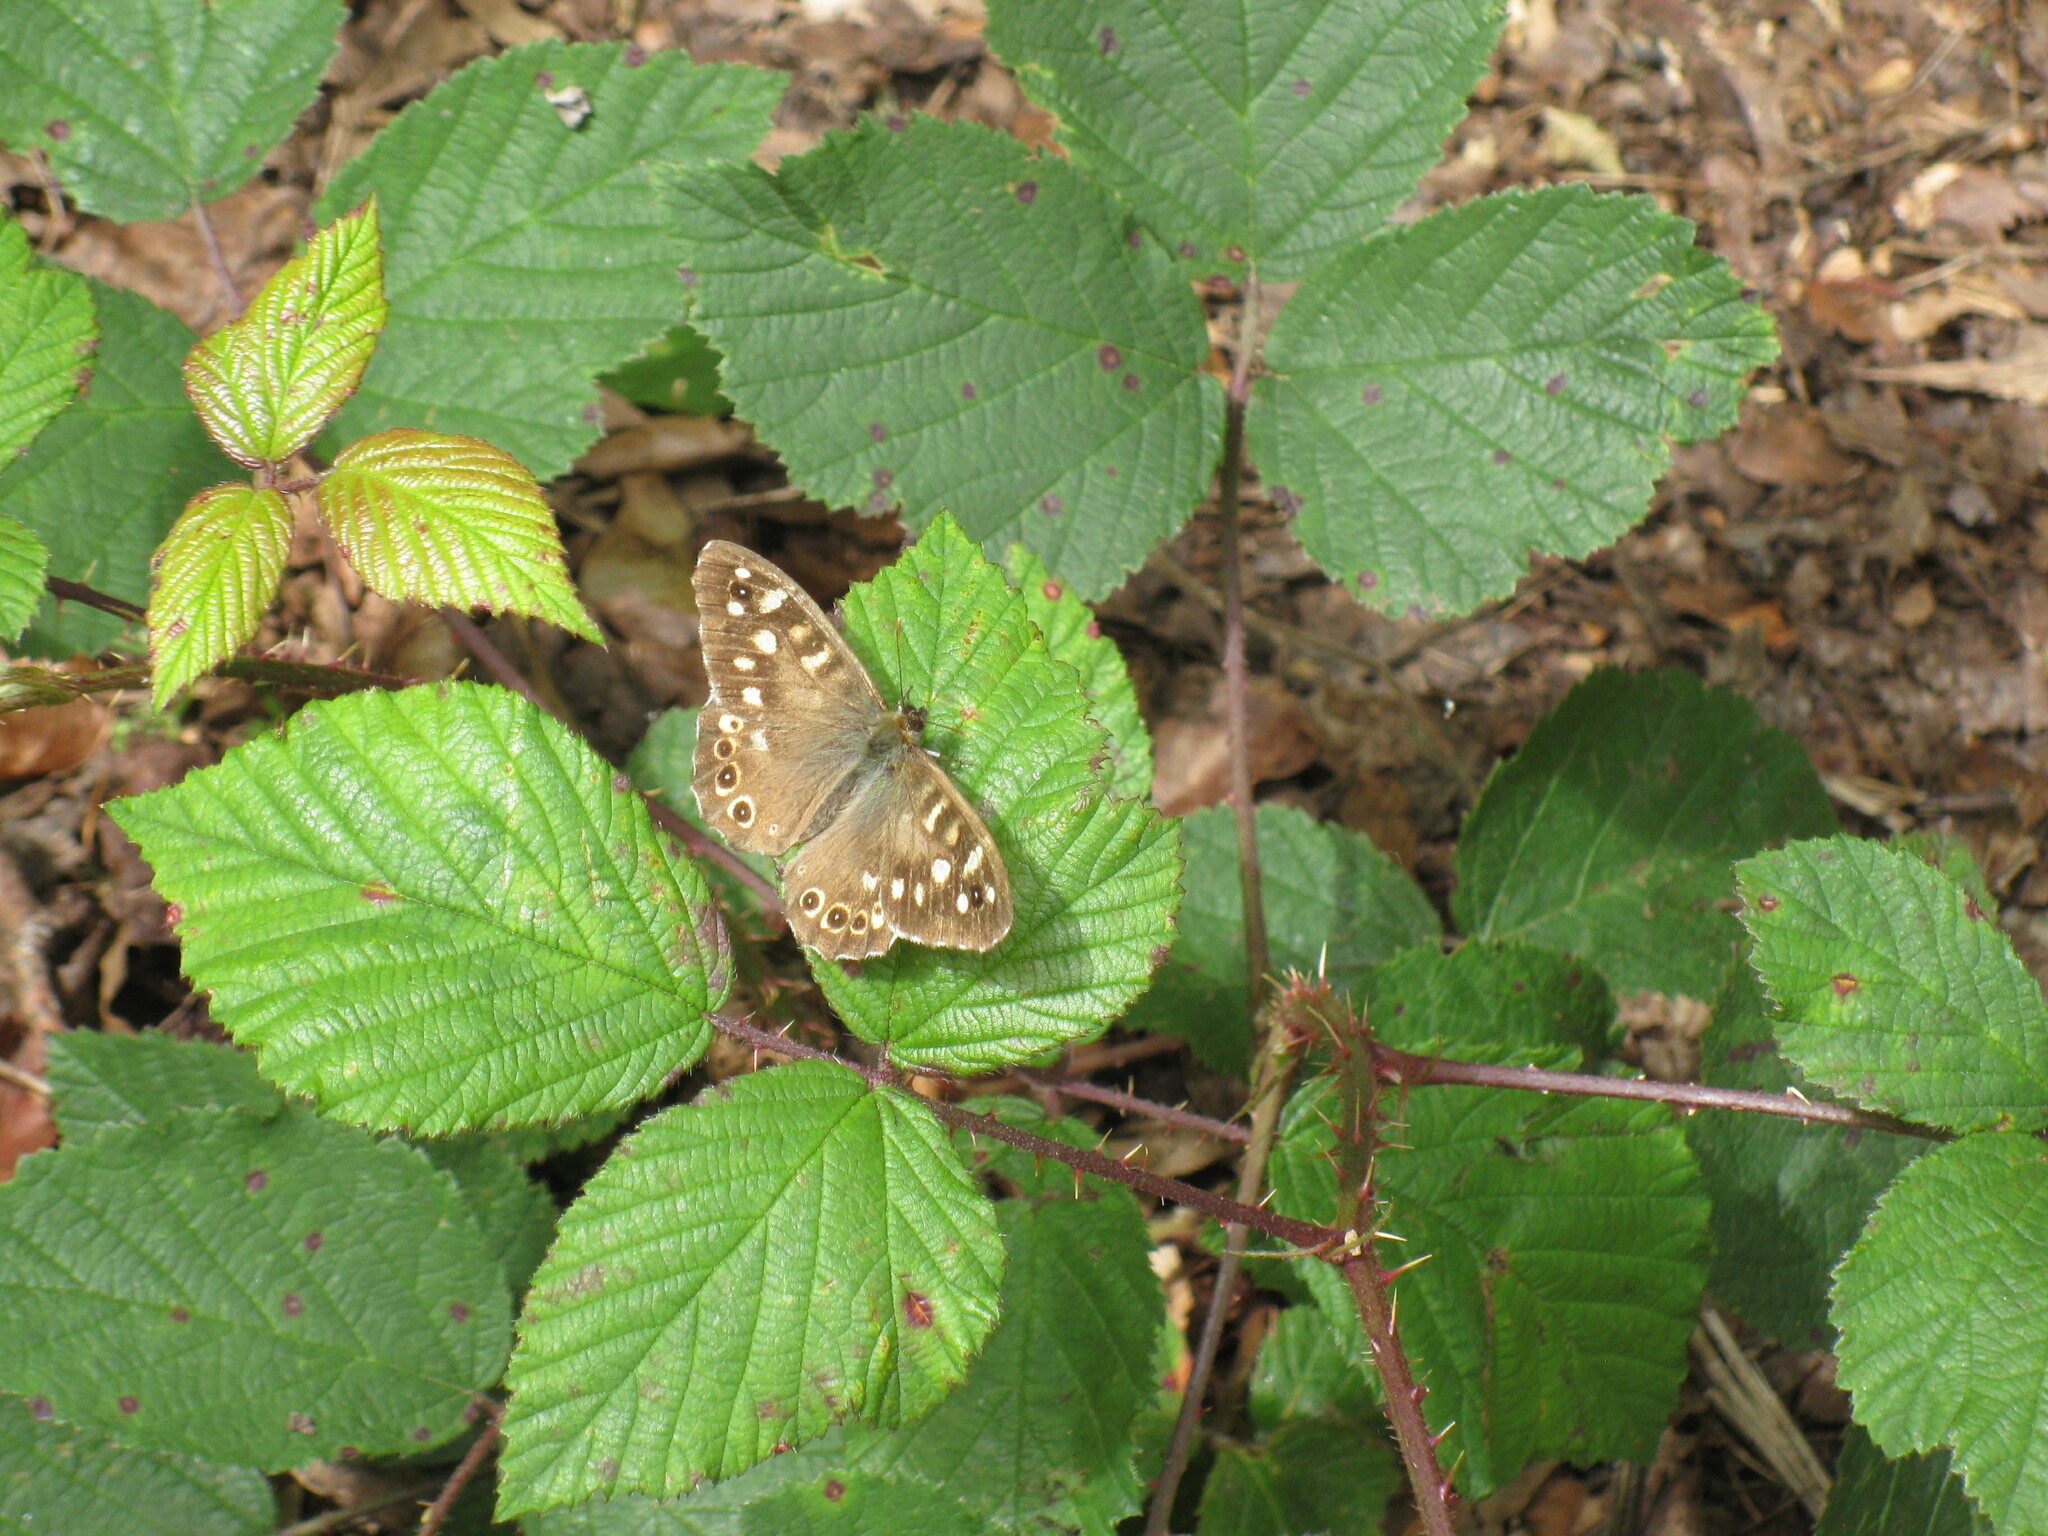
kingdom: Animalia
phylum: Arthropoda
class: Insecta
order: Lepidoptera
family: Nymphalidae
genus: Pararge
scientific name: Pararge aegeria
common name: Speckled wood
